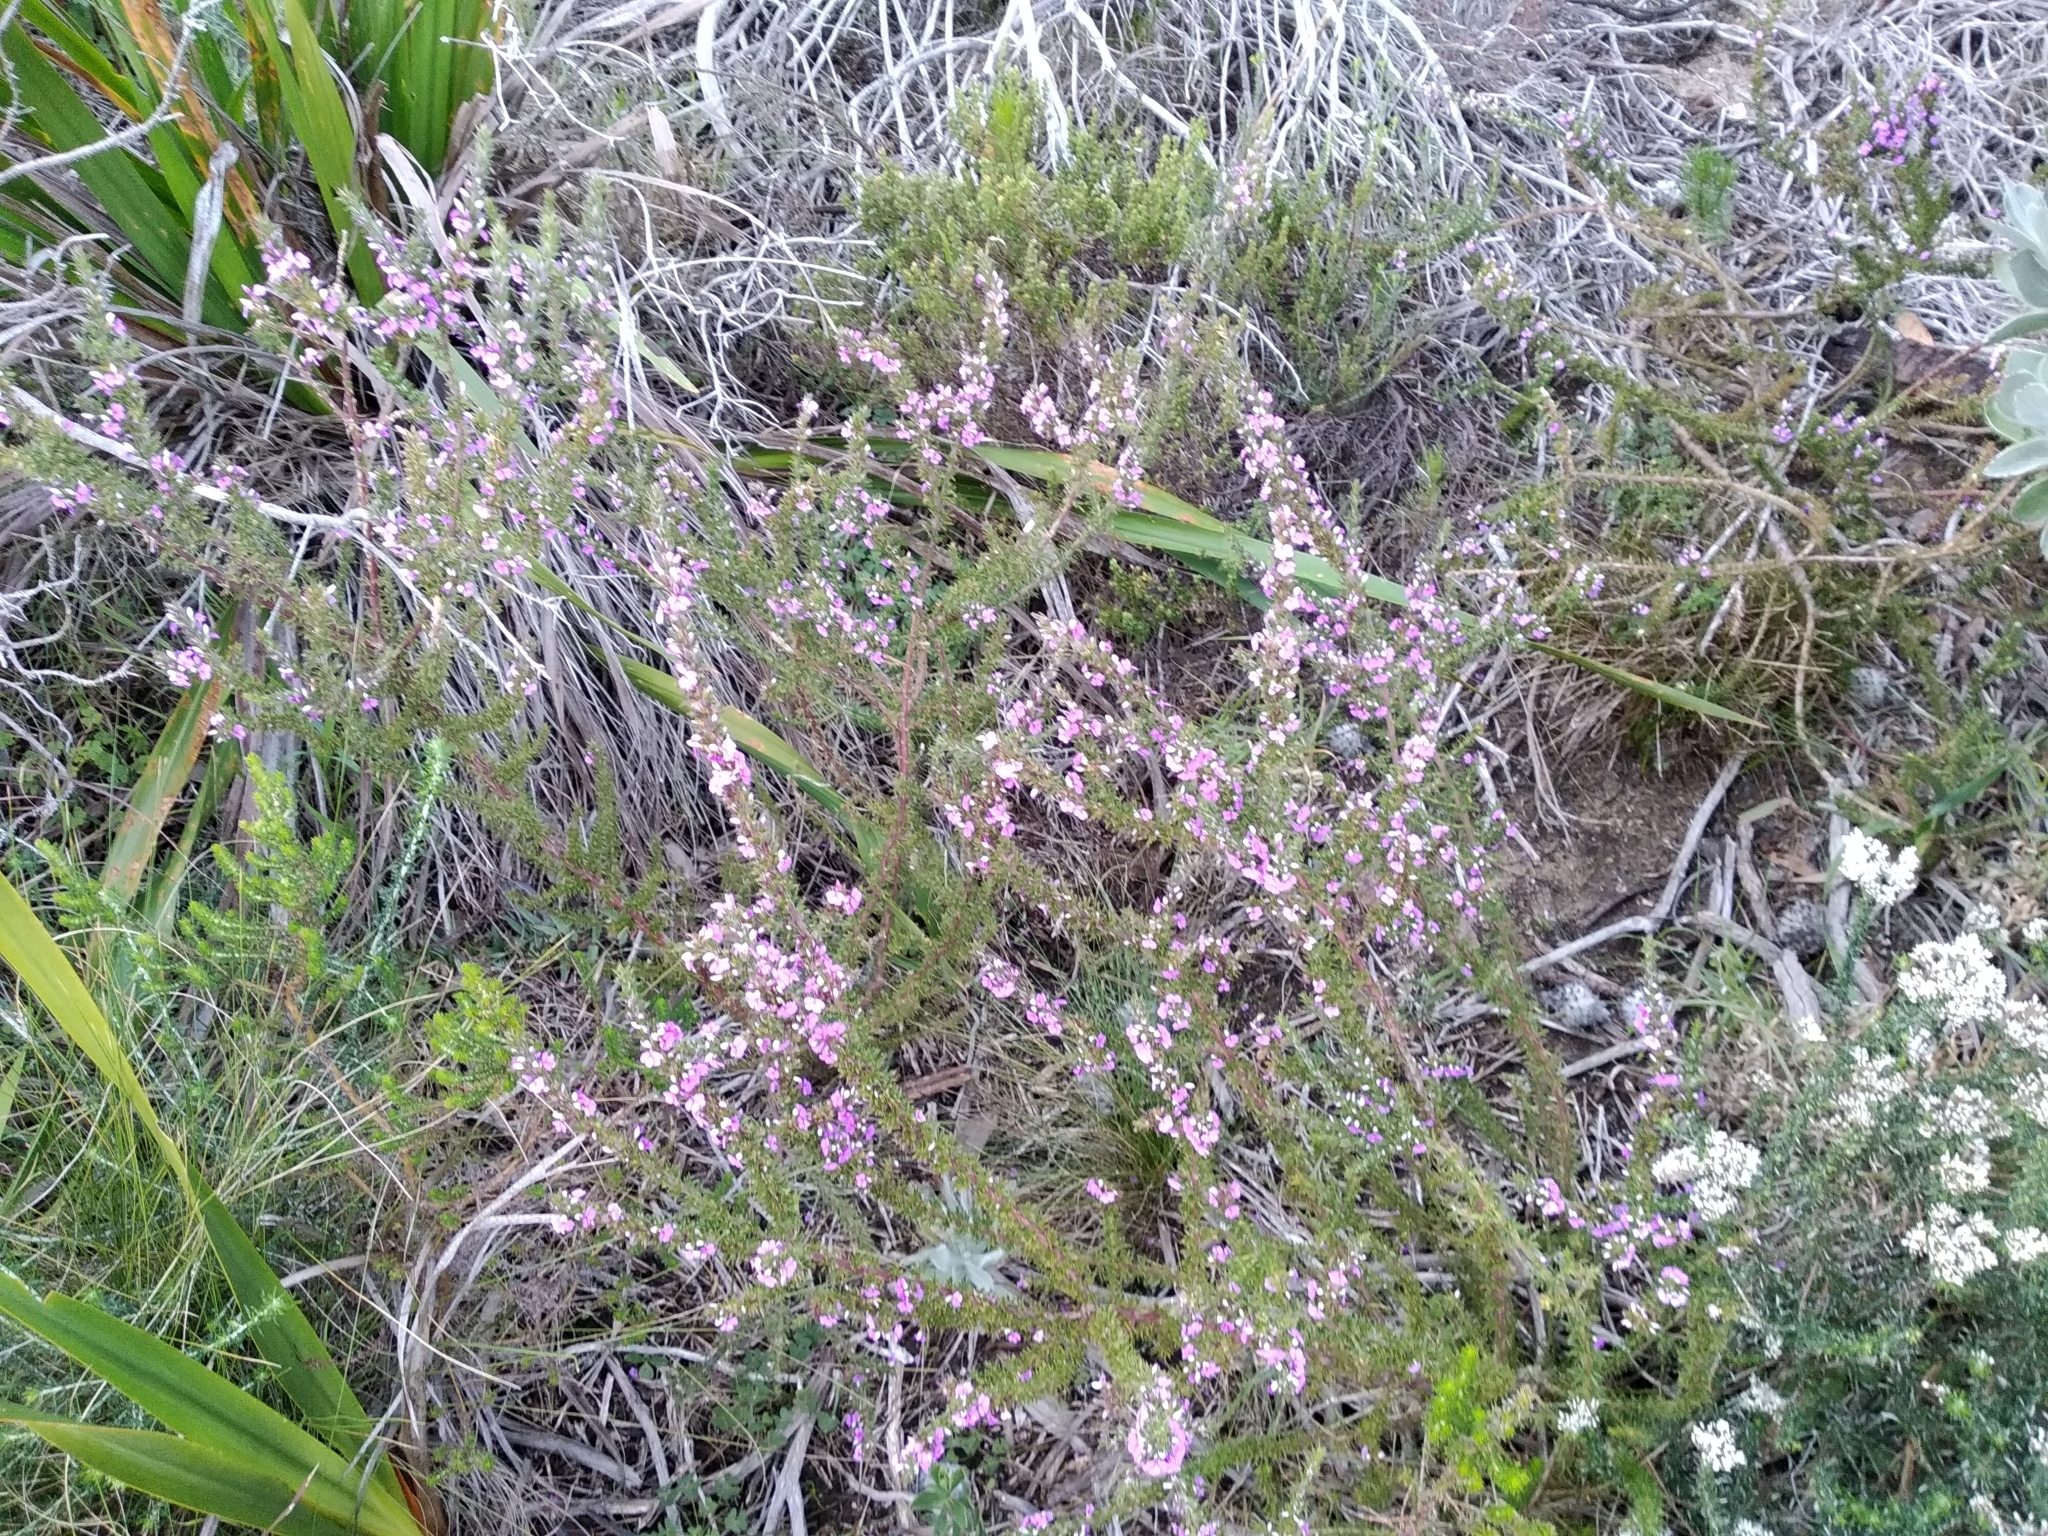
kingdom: Plantae
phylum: Tracheophyta
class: Magnoliopsida
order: Fabales
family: Polygalaceae
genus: Muraltia
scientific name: Muraltia heisteria
